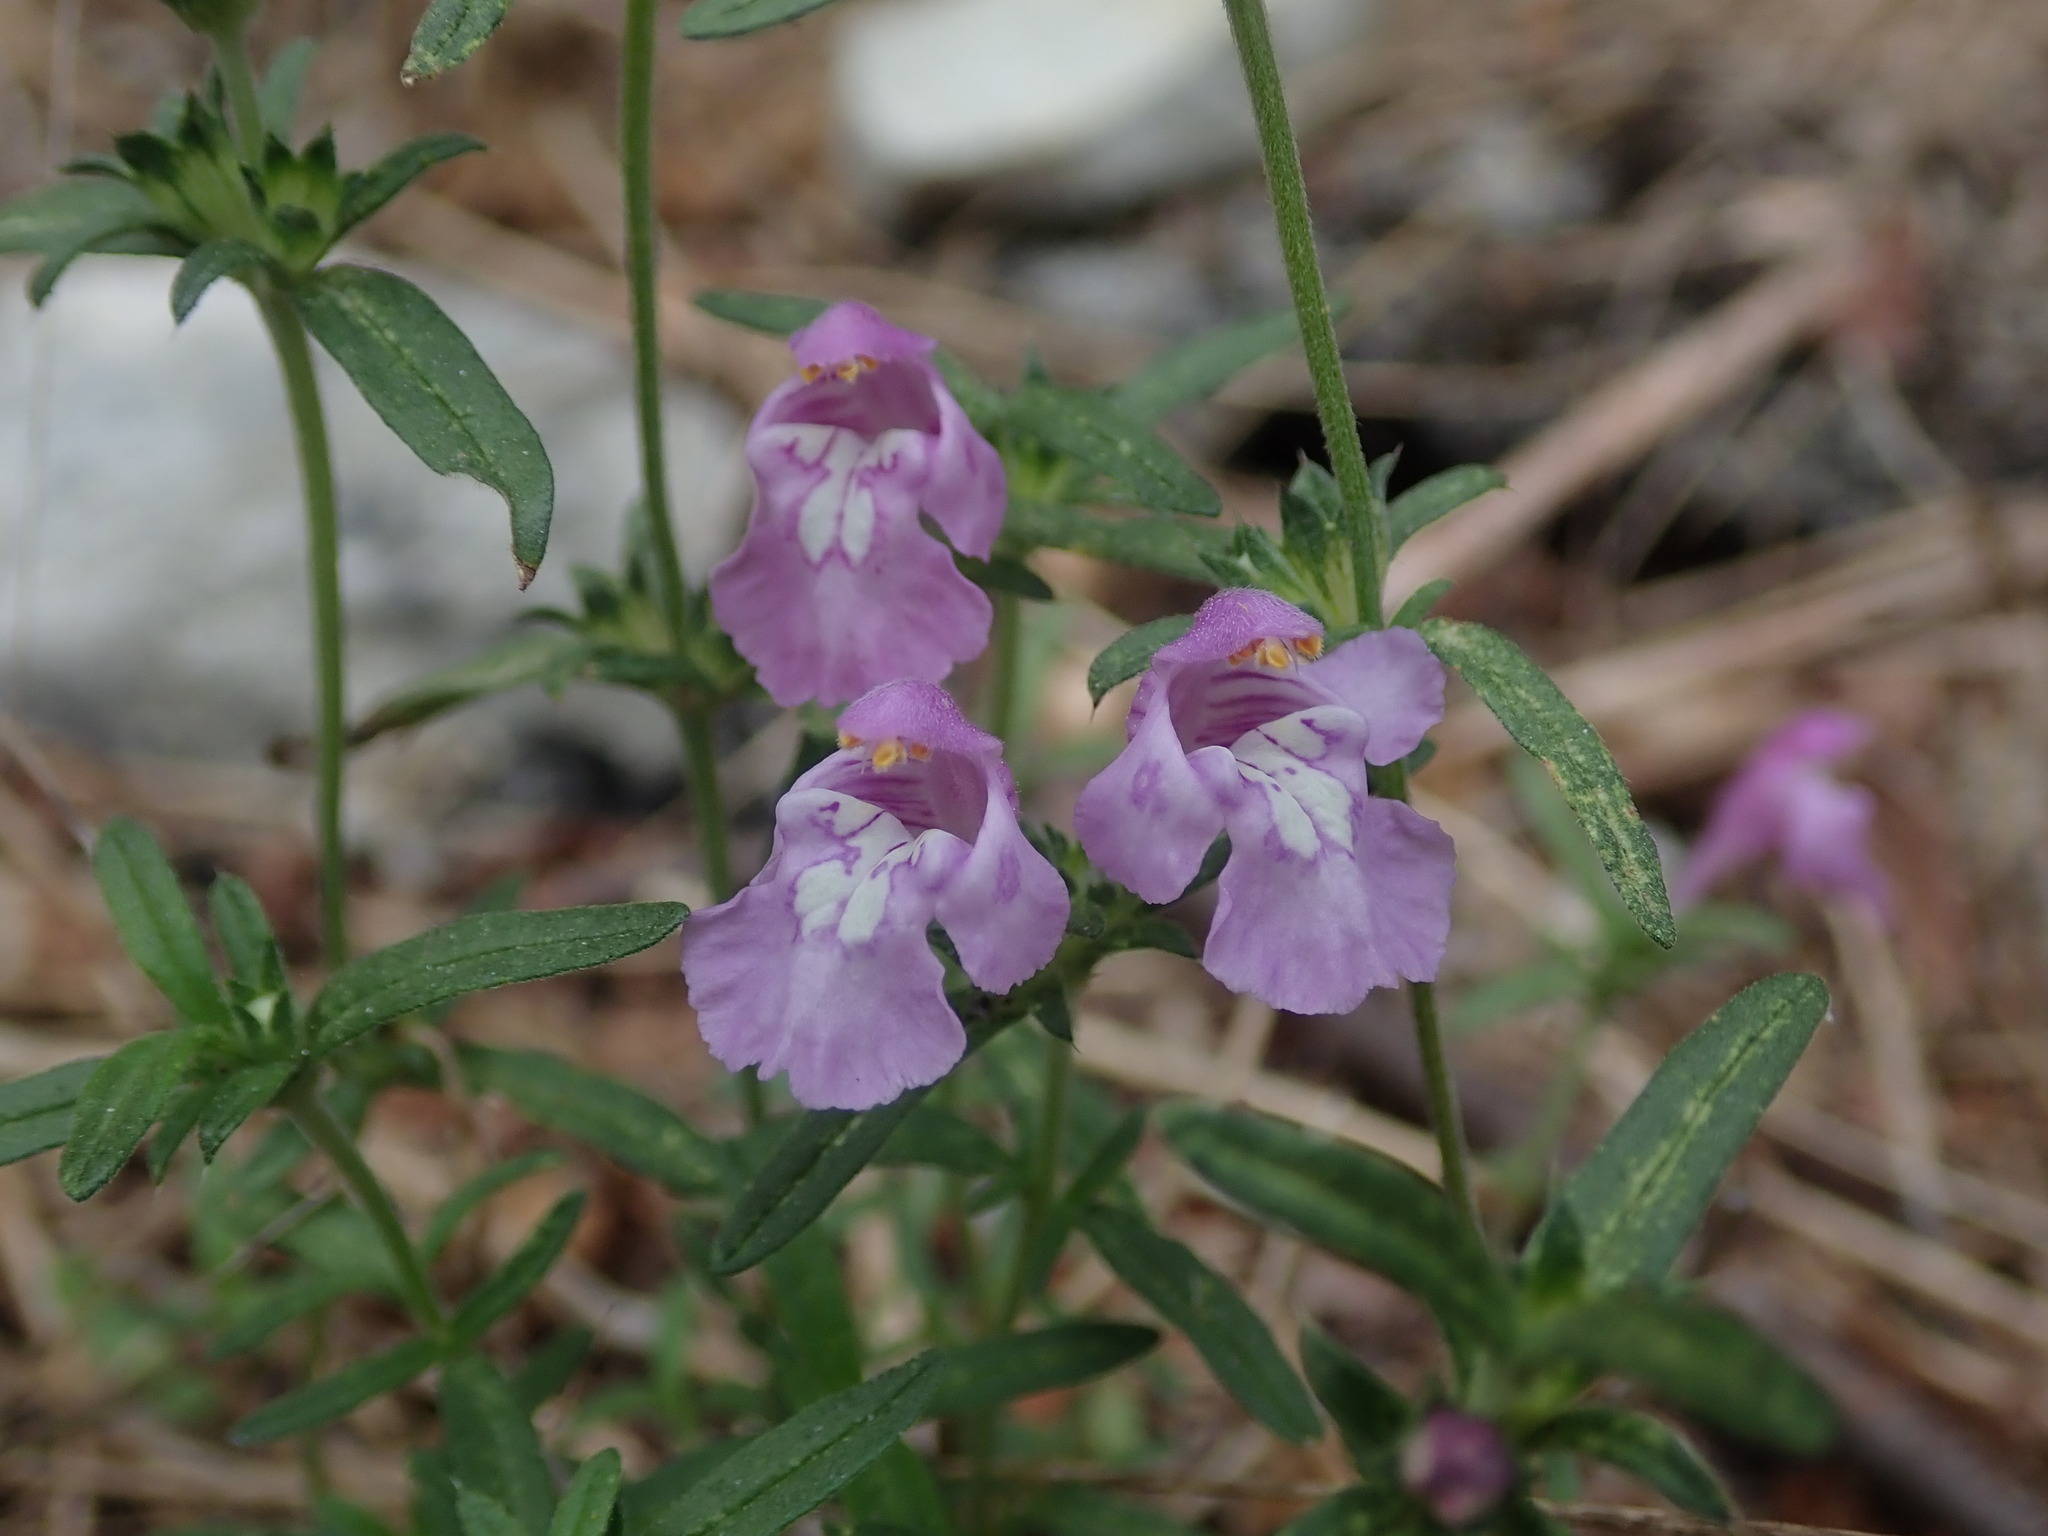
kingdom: Plantae
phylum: Tracheophyta
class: Magnoliopsida
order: Lamiales
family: Lamiaceae
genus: Galeopsis
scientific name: Galeopsis angustifolia
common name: Red hemp-nettle
